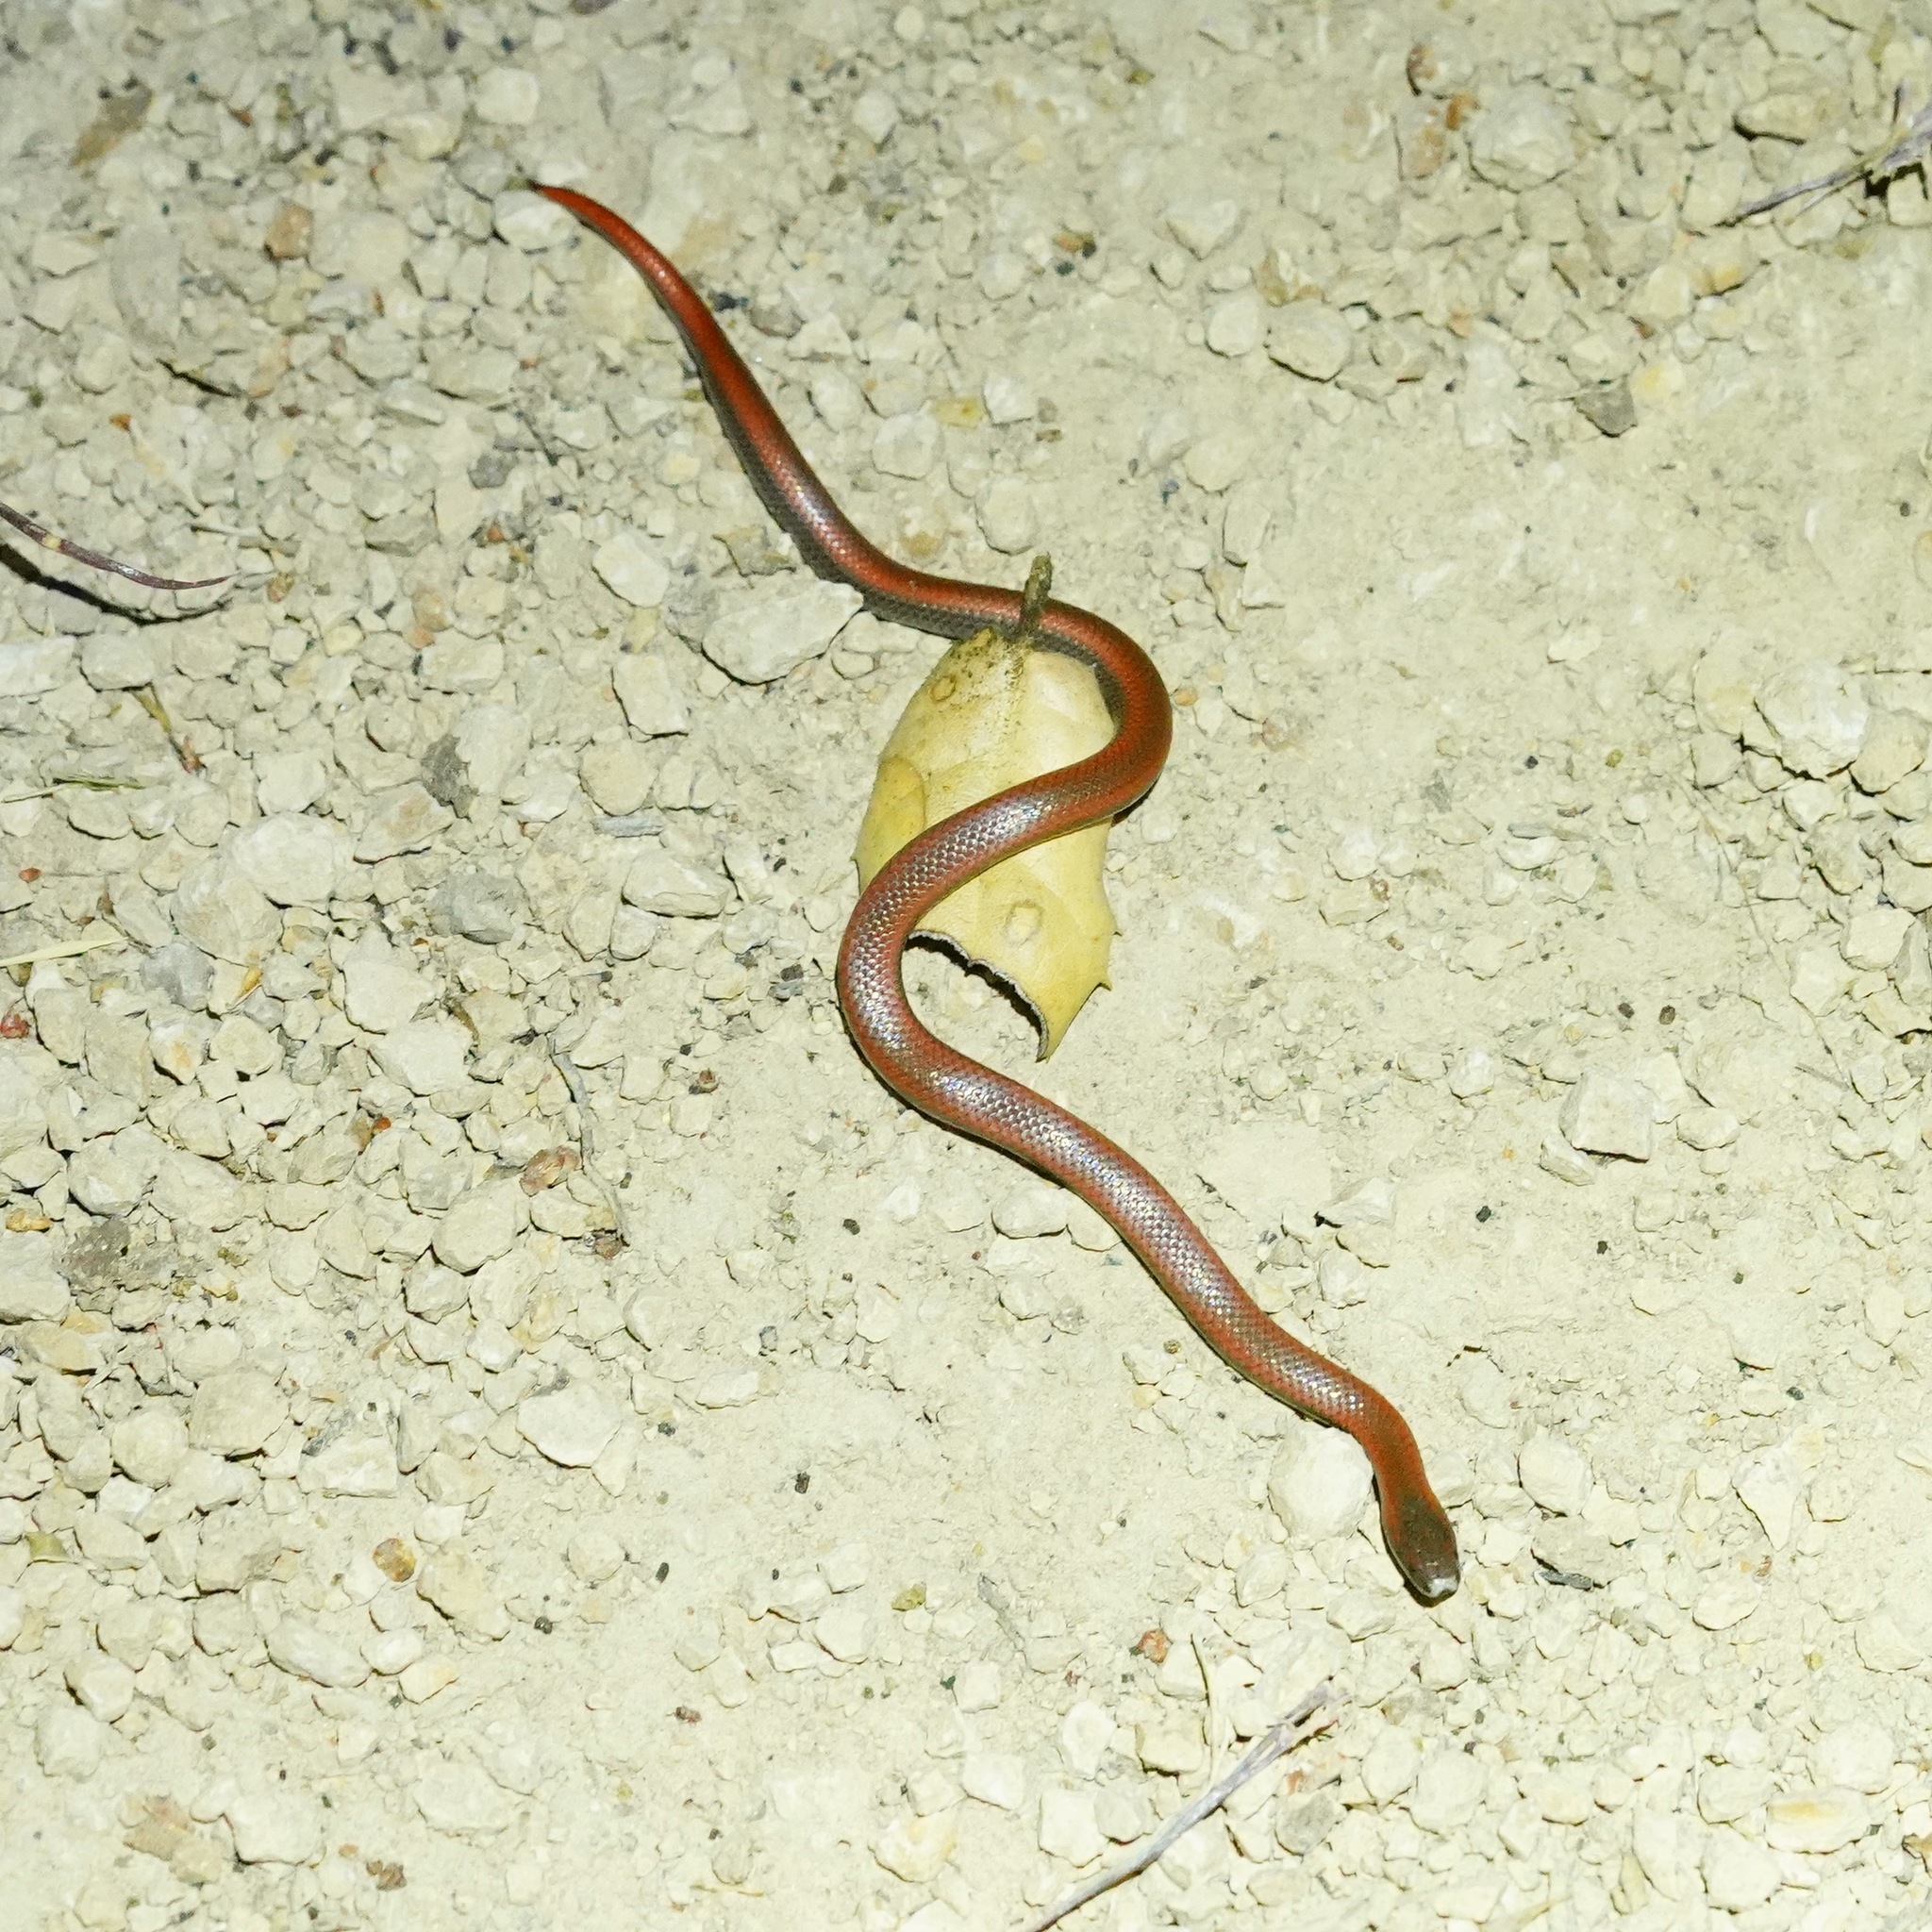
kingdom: Animalia
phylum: Chordata
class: Squamata
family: Colubridae
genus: Contia
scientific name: Contia tenuis
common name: Sharptail snake
